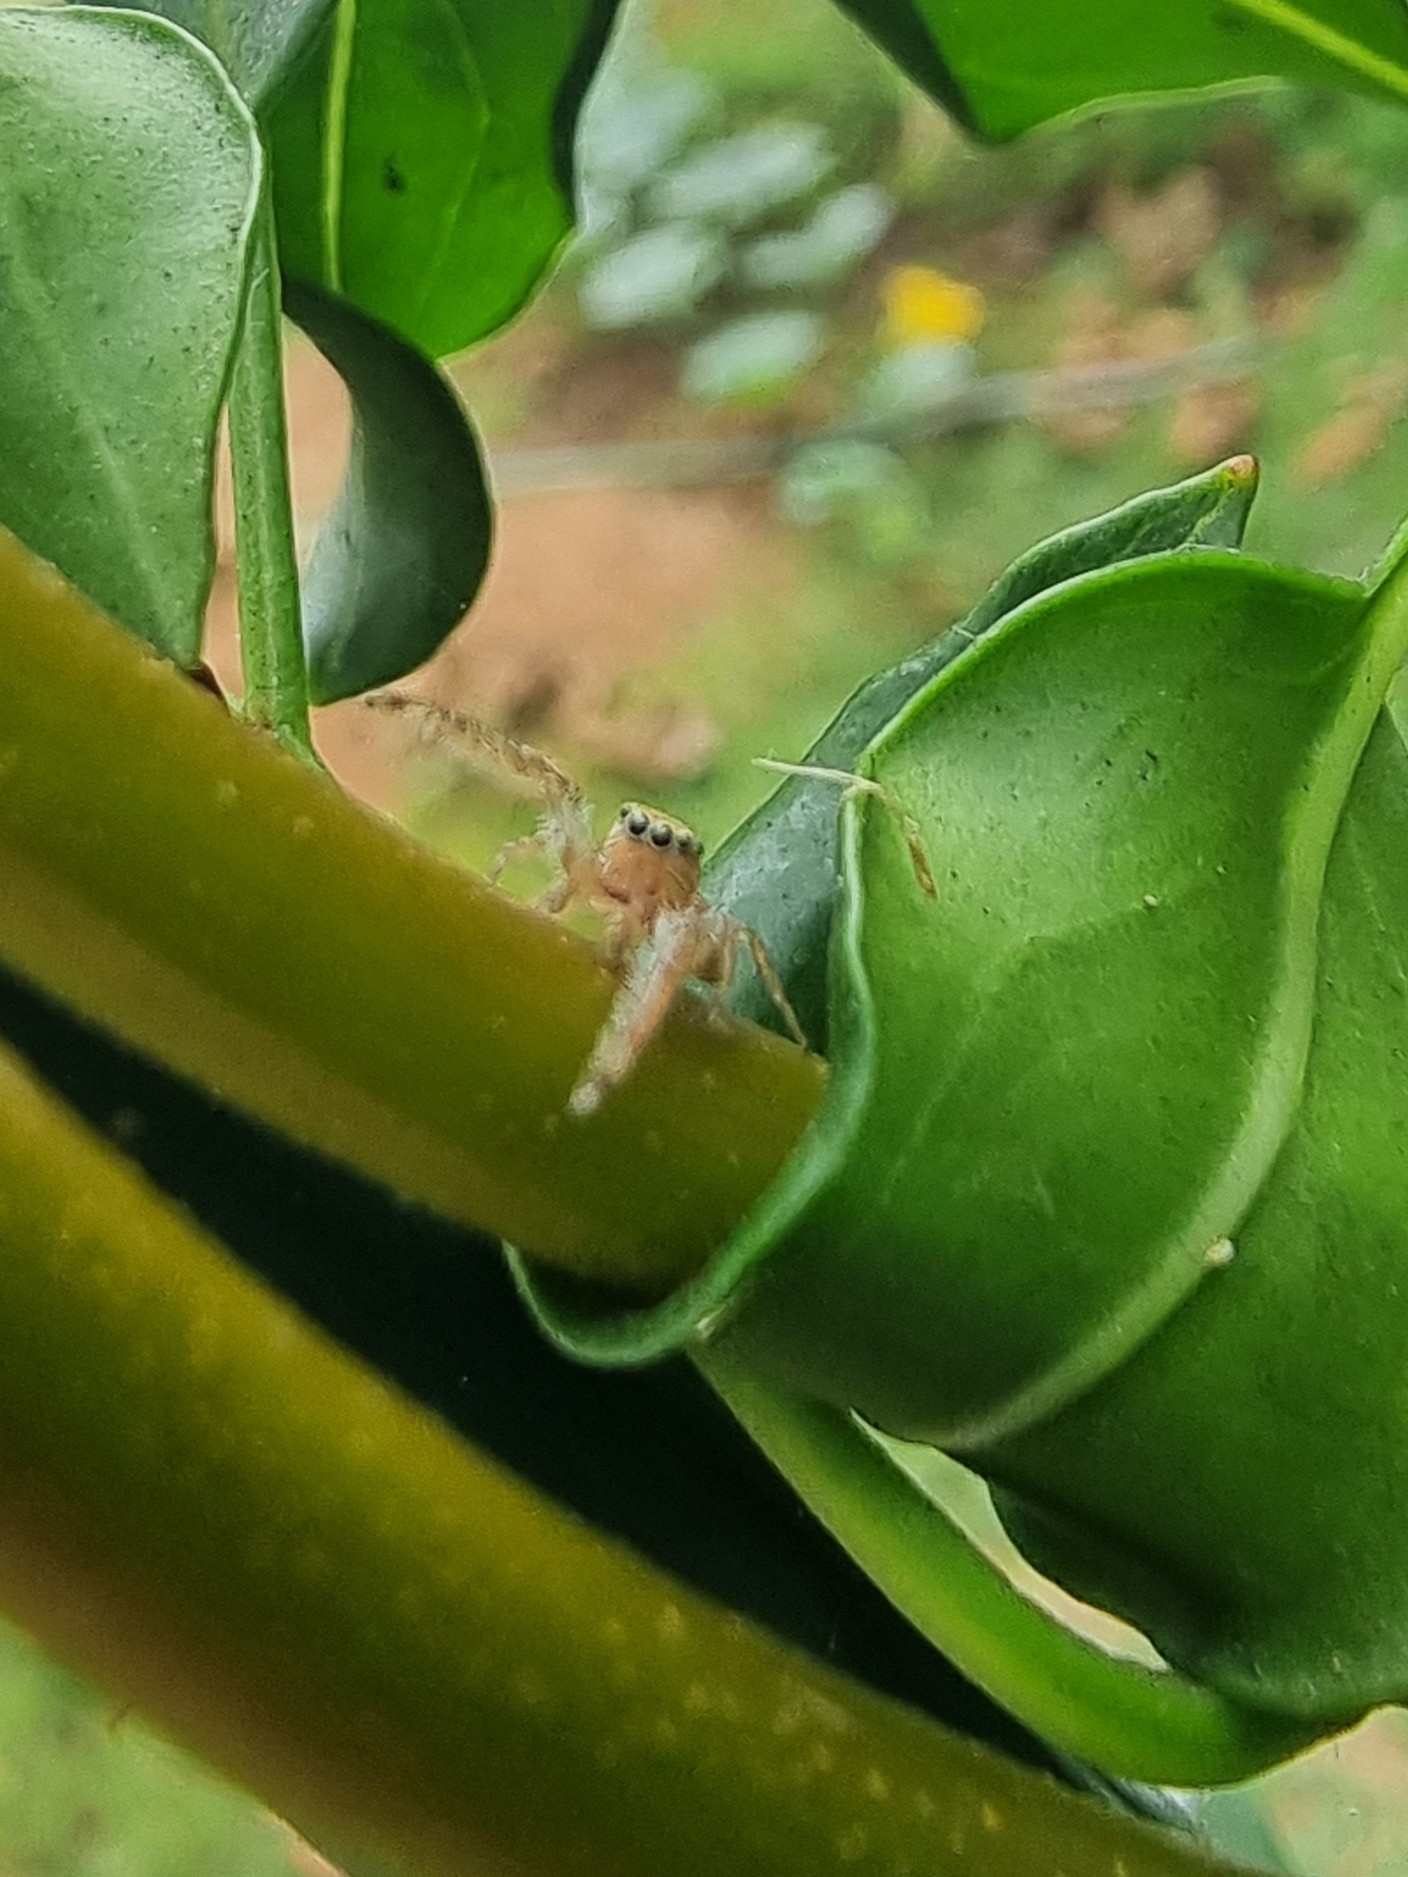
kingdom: Animalia
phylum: Arthropoda
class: Arachnida
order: Araneae
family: Salticidae
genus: Macaroeris
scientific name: Macaroeris cata
